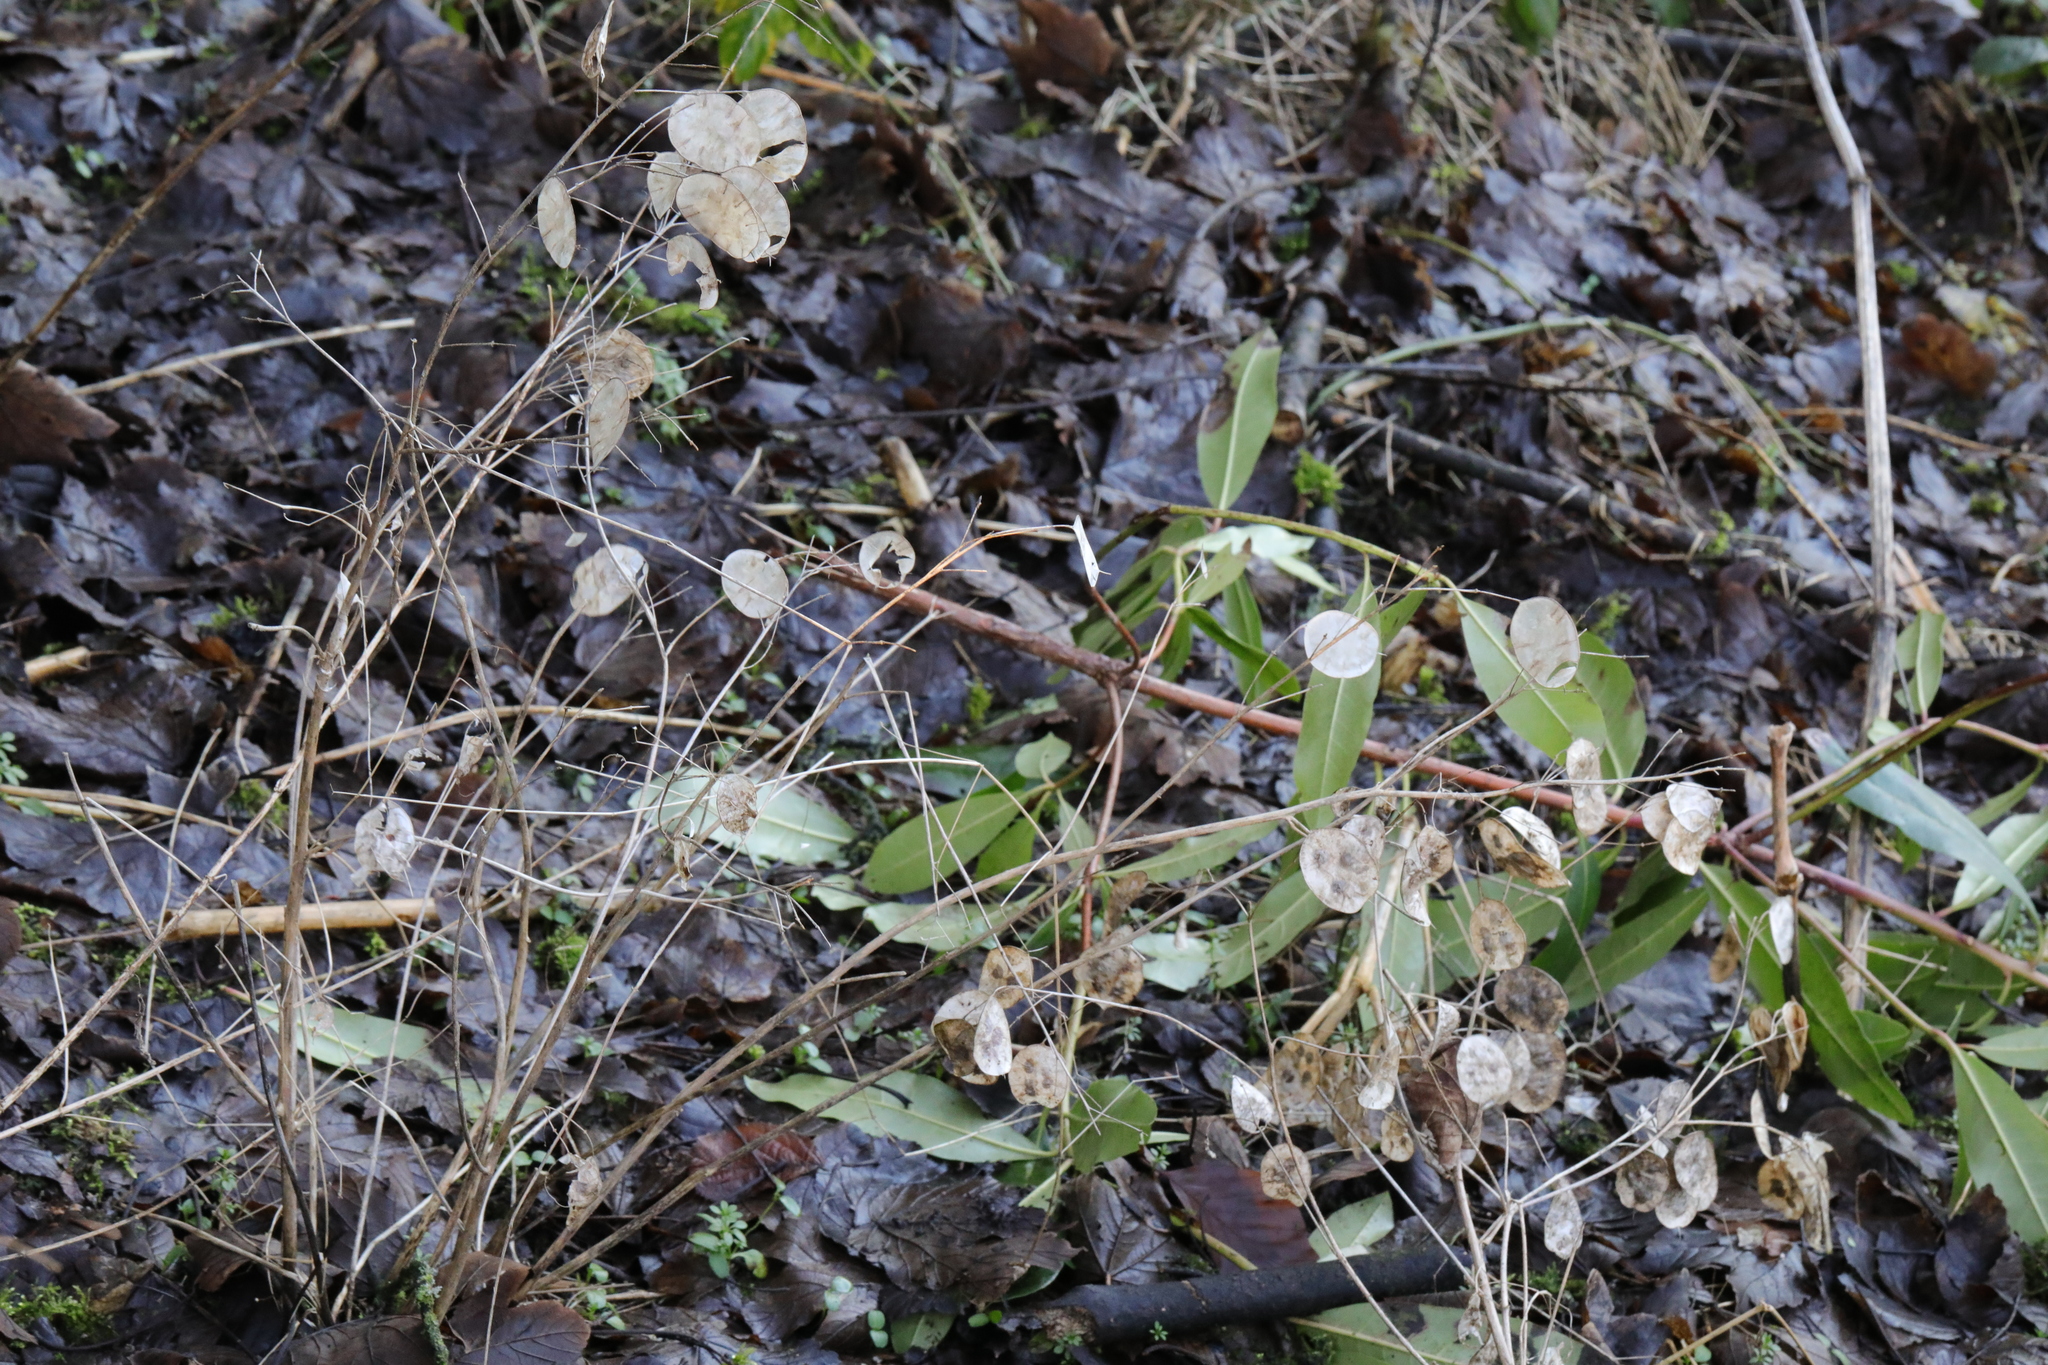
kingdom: Plantae
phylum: Tracheophyta
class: Magnoliopsida
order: Brassicales
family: Brassicaceae
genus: Lunaria
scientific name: Lunaria annua
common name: Honesty
